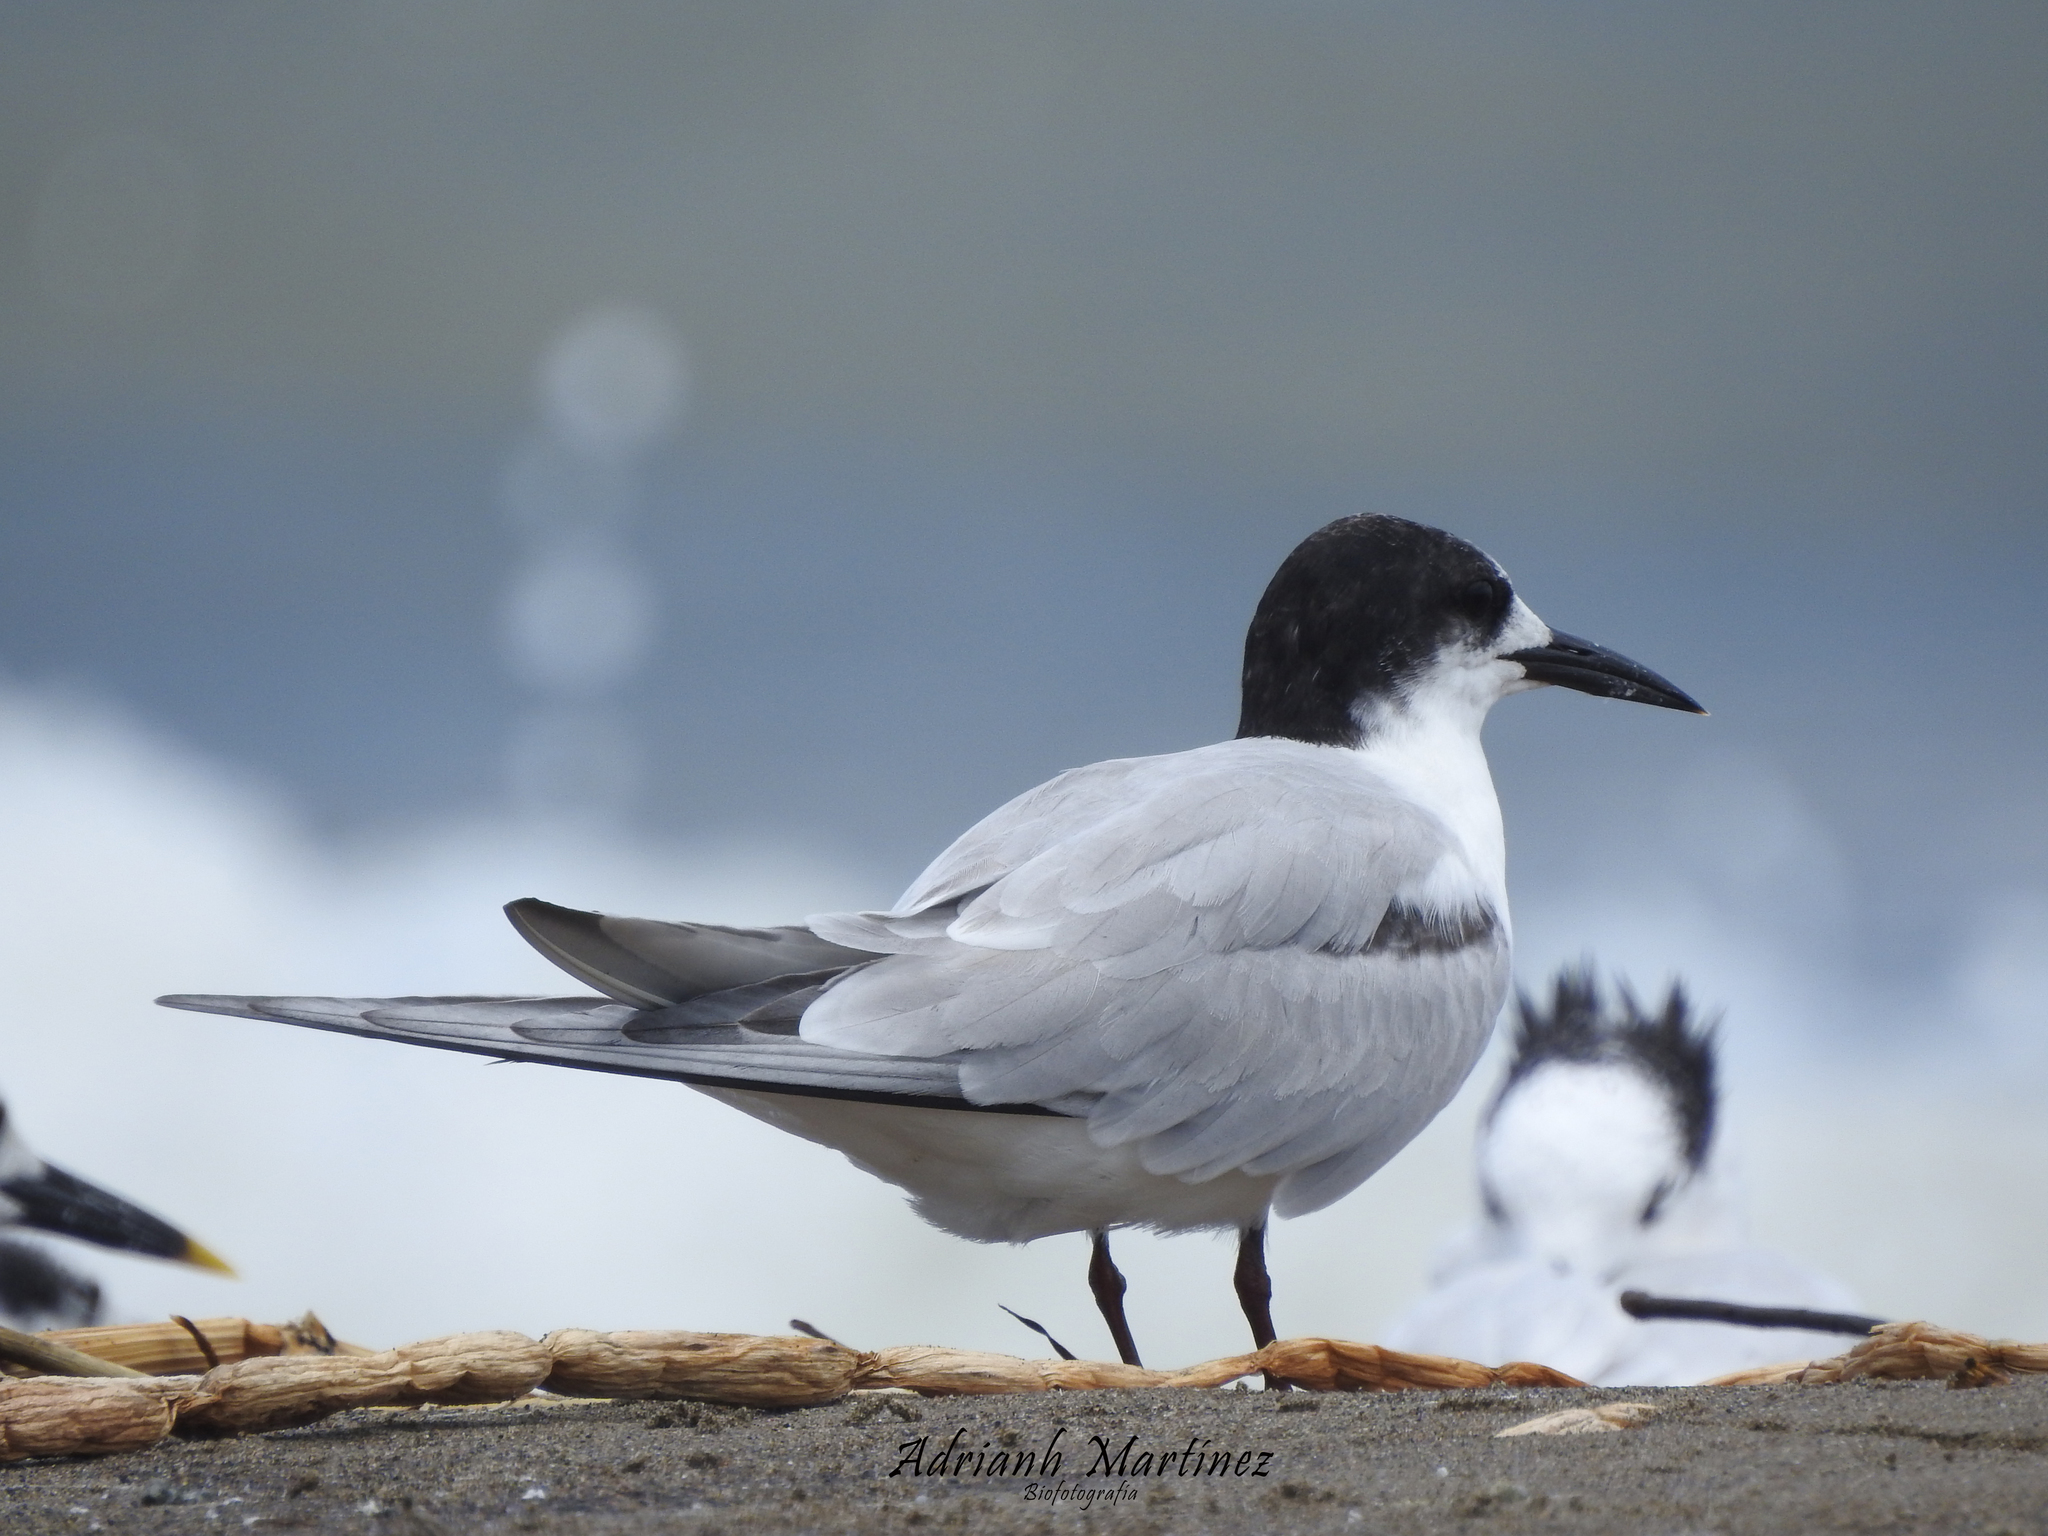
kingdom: Animalia
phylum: Chordata
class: Aves
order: Charadriiformes
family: Laridae
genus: Sterna
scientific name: Sterna hirundo
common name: Common tern
